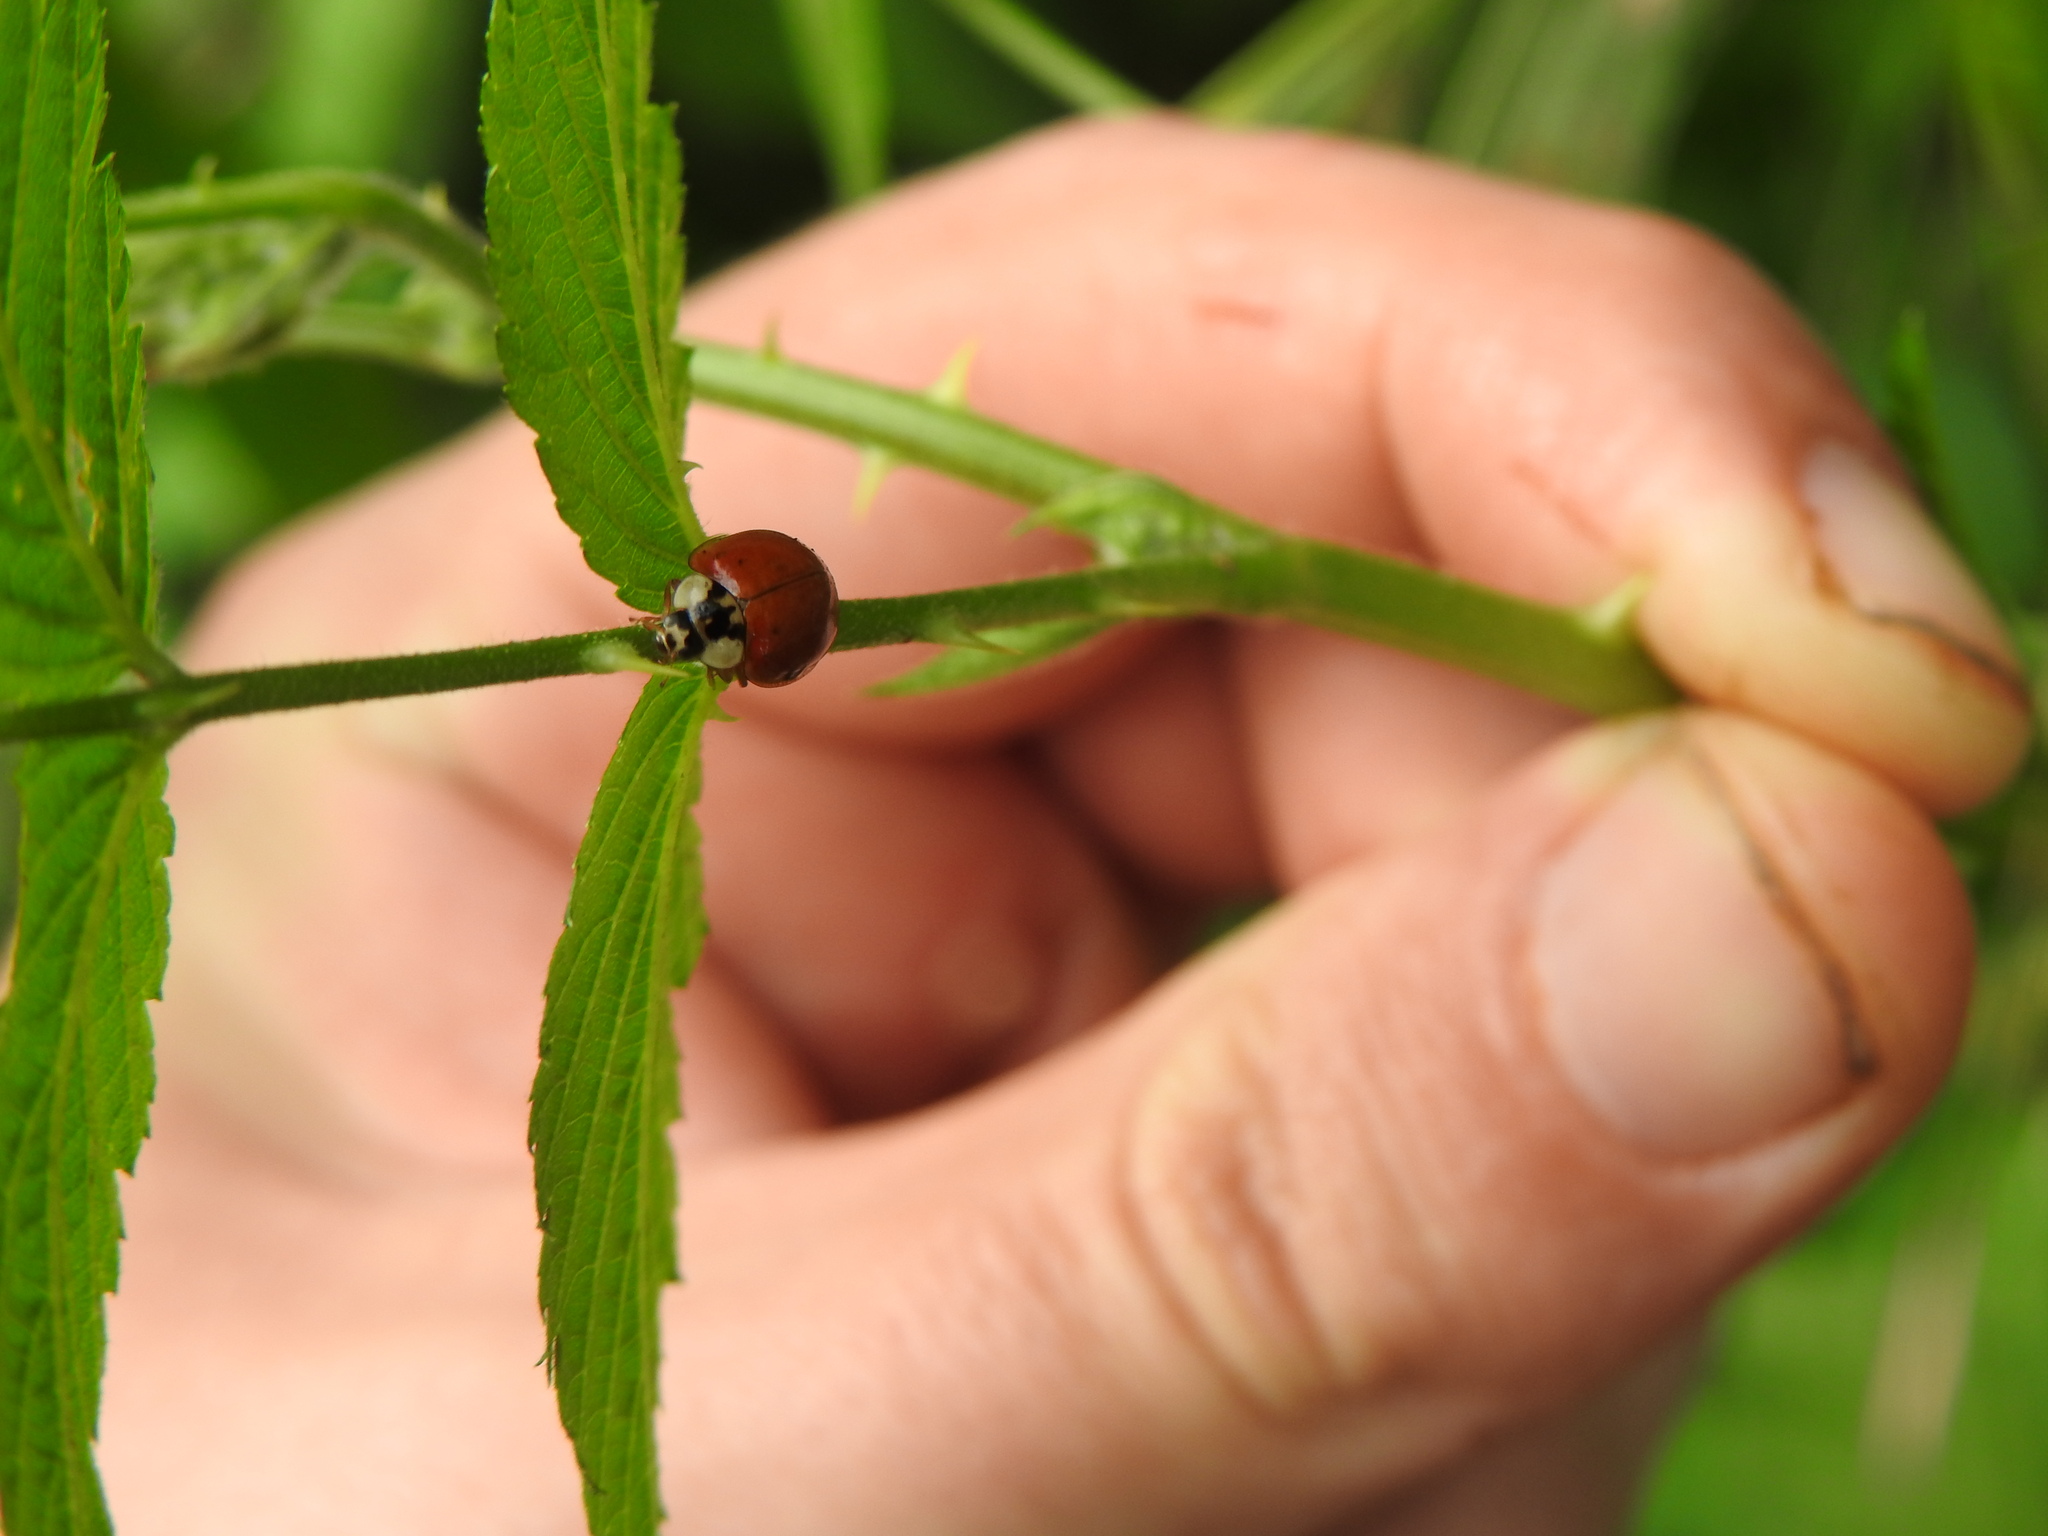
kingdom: Animalia
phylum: Arthropoda
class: Insecta
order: Coleoptera
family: Coccinellidae
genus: Harmonia
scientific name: Harmonia axyridis
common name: Harlequin ladybird
